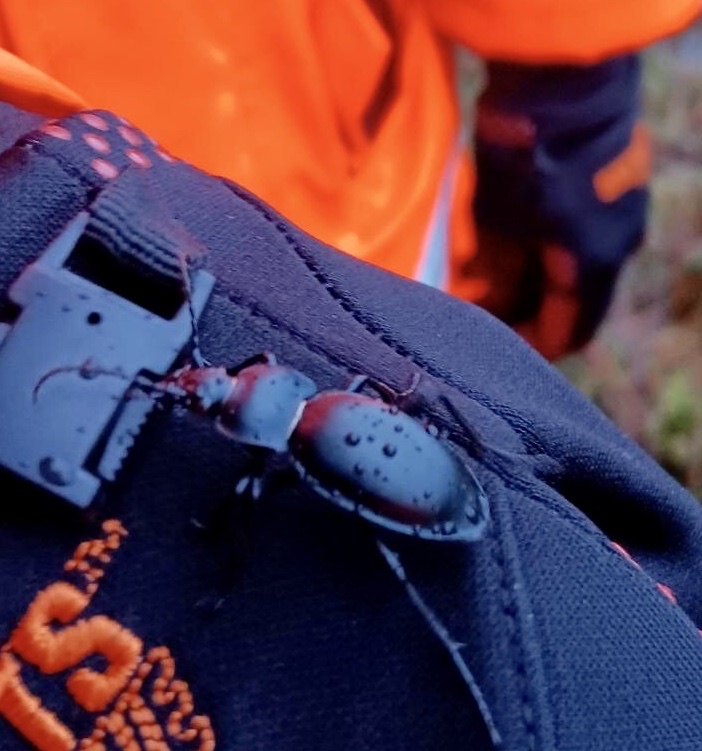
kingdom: Animalia
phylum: Arthropoda
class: Insecta
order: Coleoptera
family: Carabidae
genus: Carabus
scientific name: Carabus glabratus
